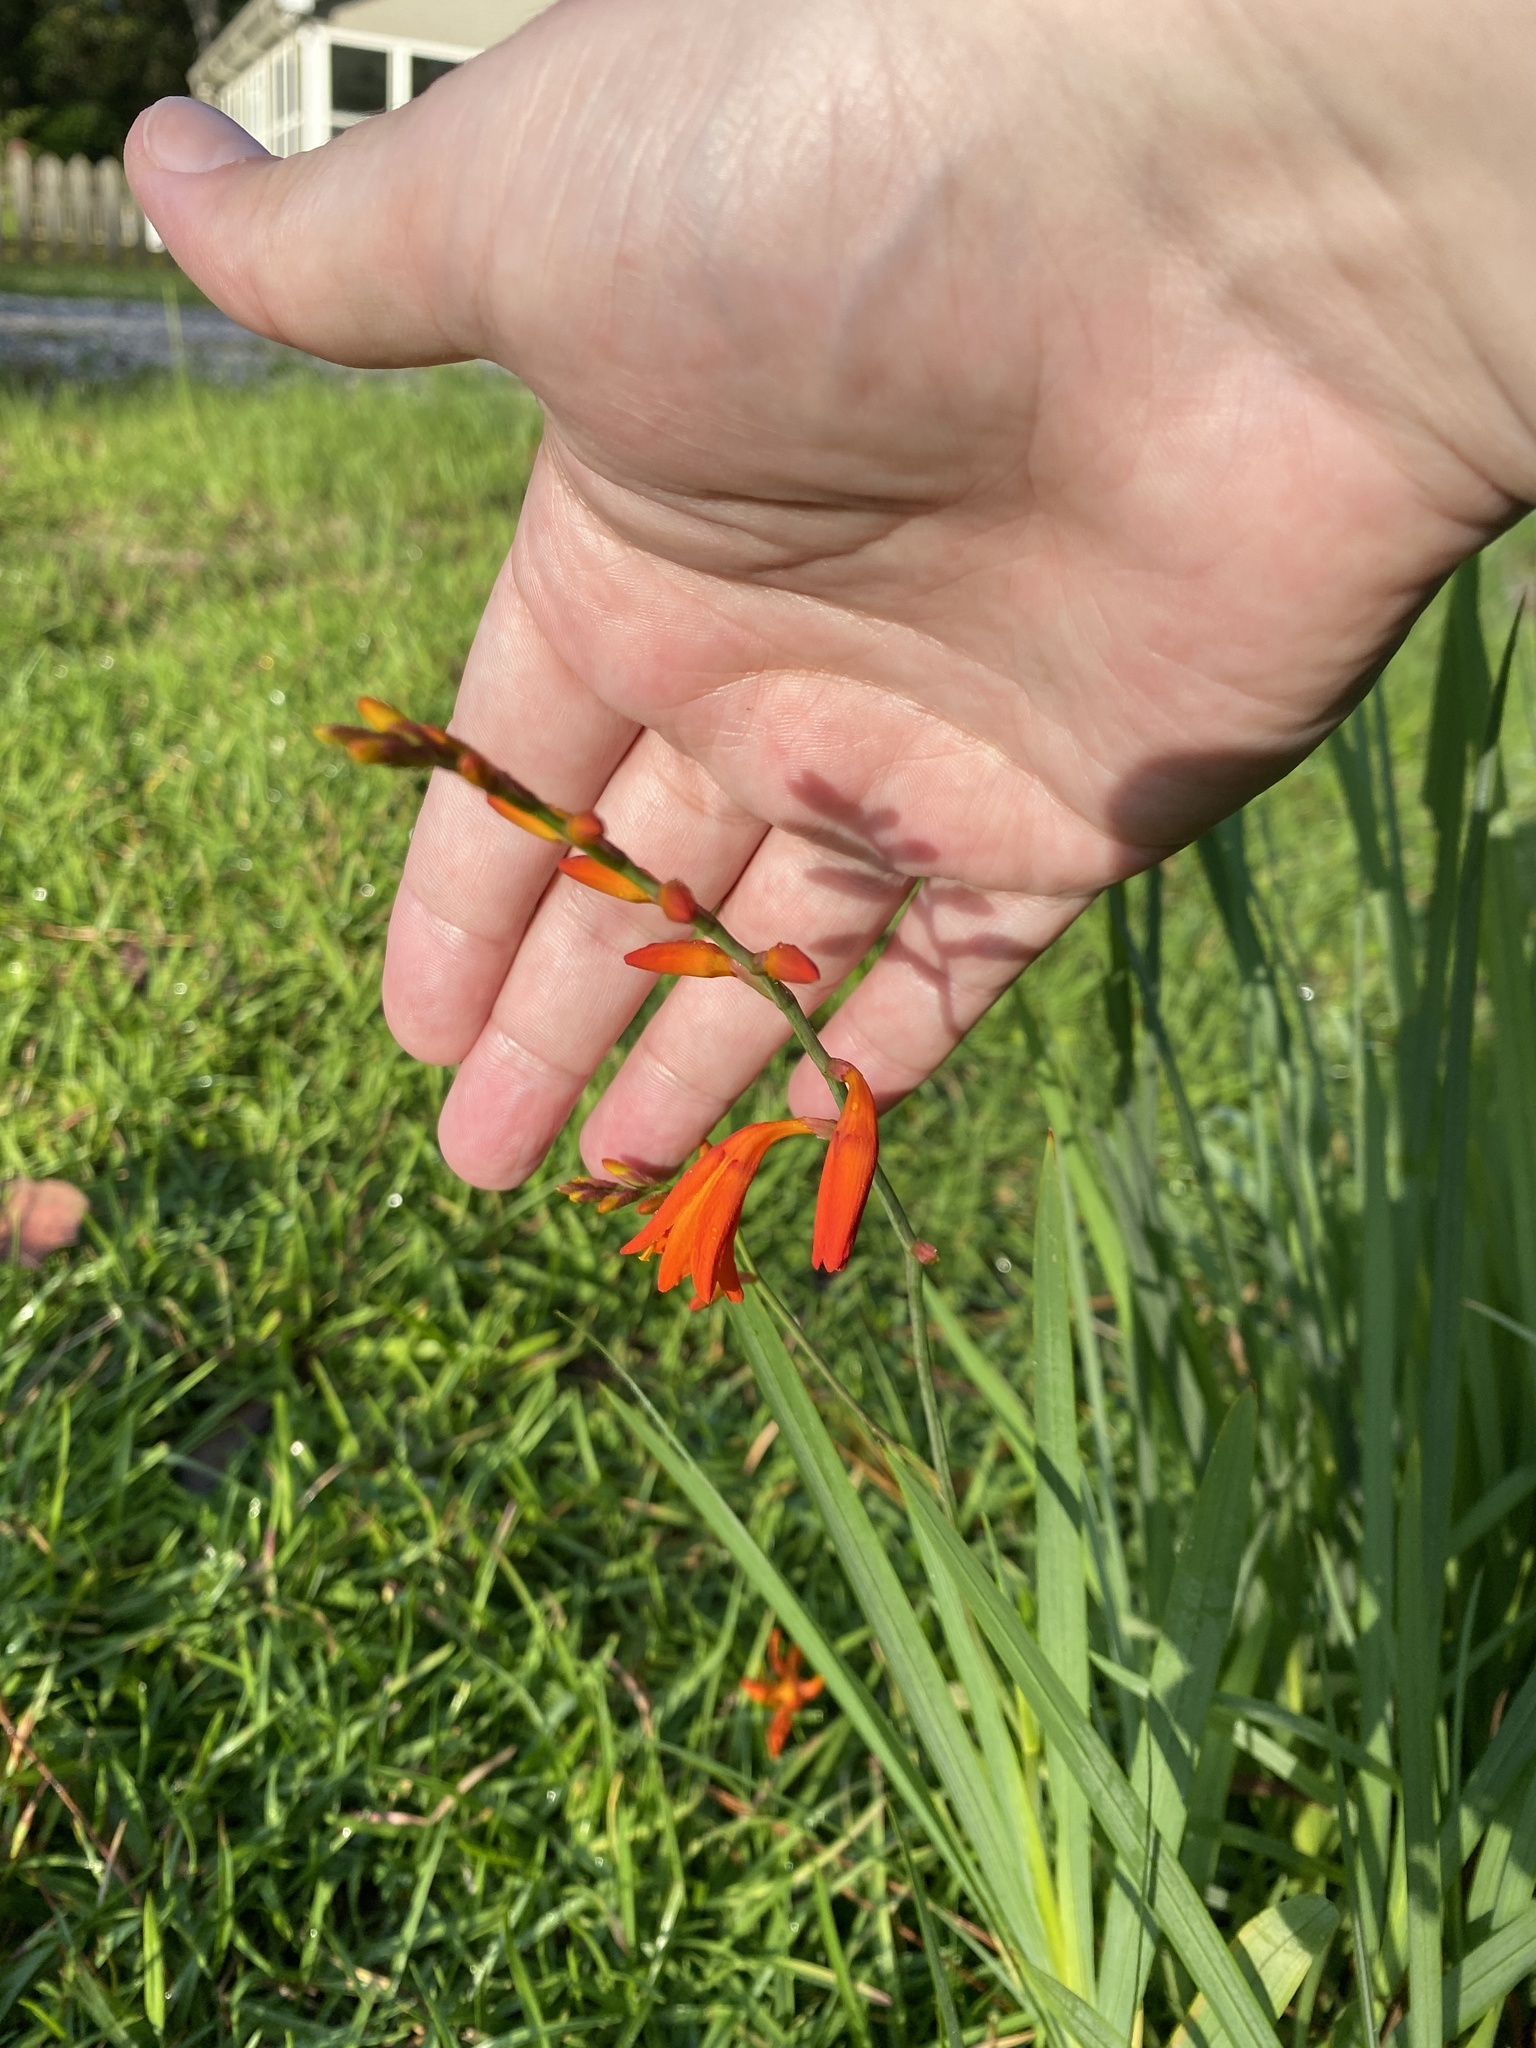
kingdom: Plantae
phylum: Tracheophyta
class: Liliopsida
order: Asparagales
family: Iridaceae
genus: Crocosmia
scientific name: Crocosmia crocosmiiflora
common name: Montbretia
